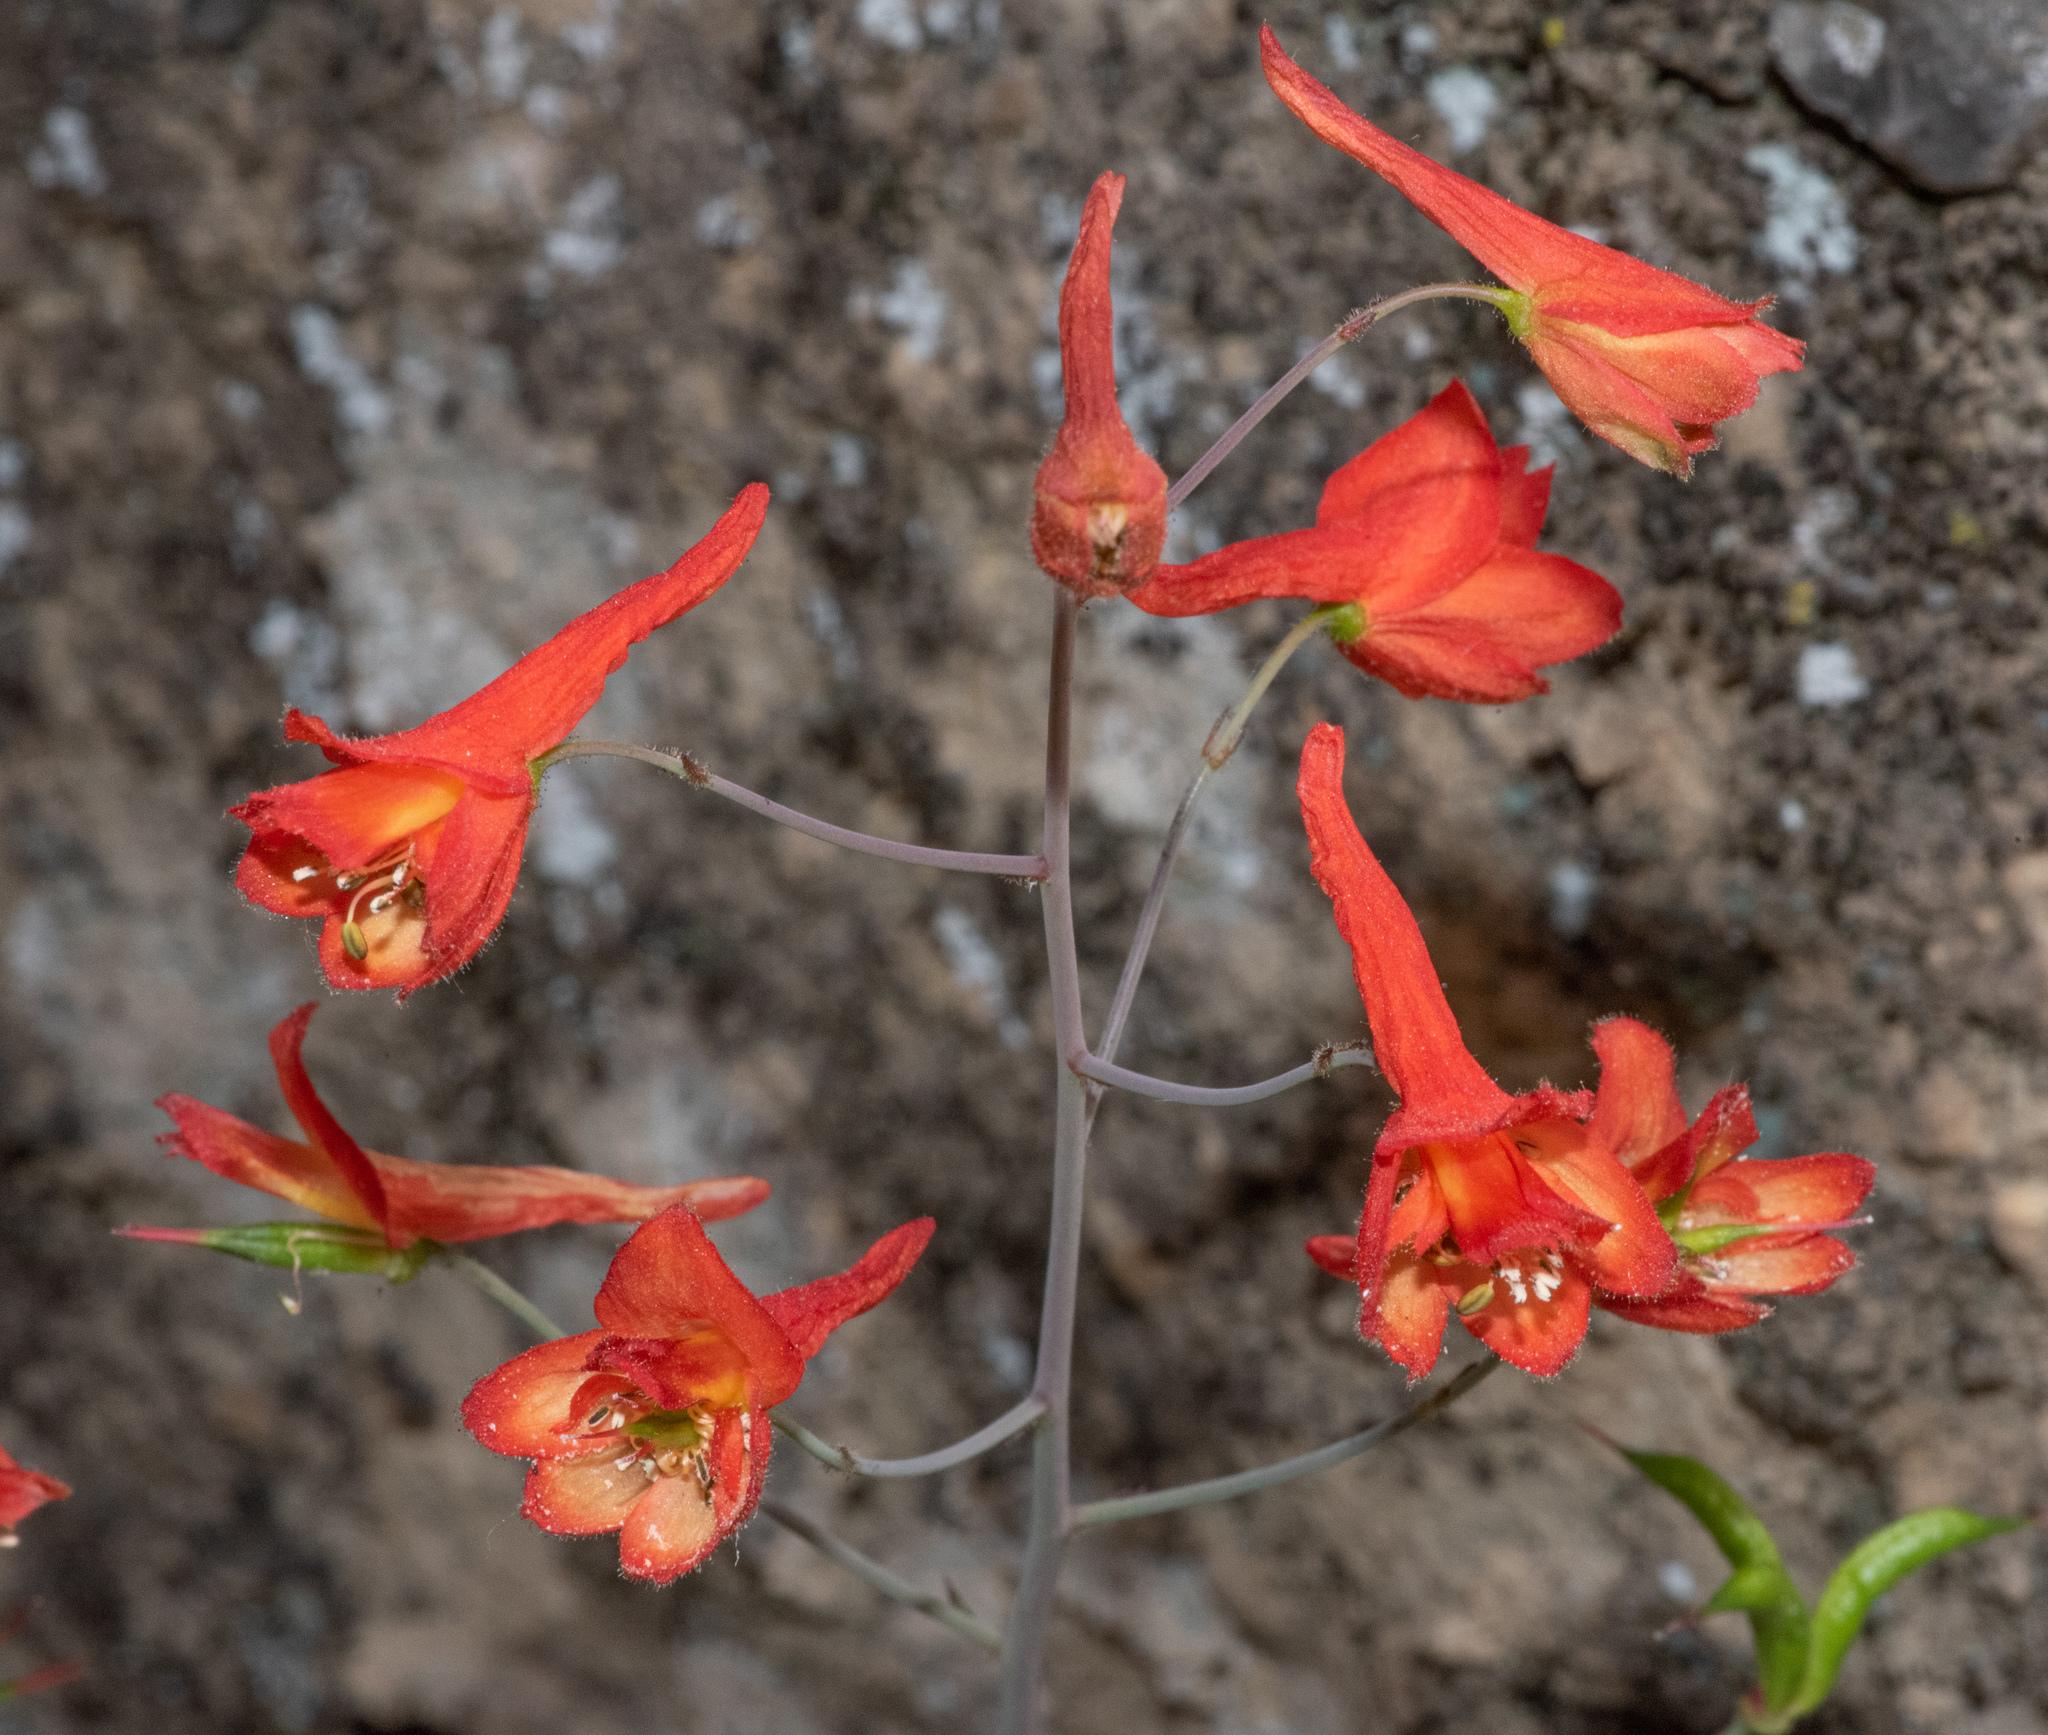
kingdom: Plantae
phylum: Tracheophyta
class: Magnoliopsida
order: Ranunculales
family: Ranunculaceae
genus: Delphinium
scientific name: Delphinium nudicaule
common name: Red larkspur
